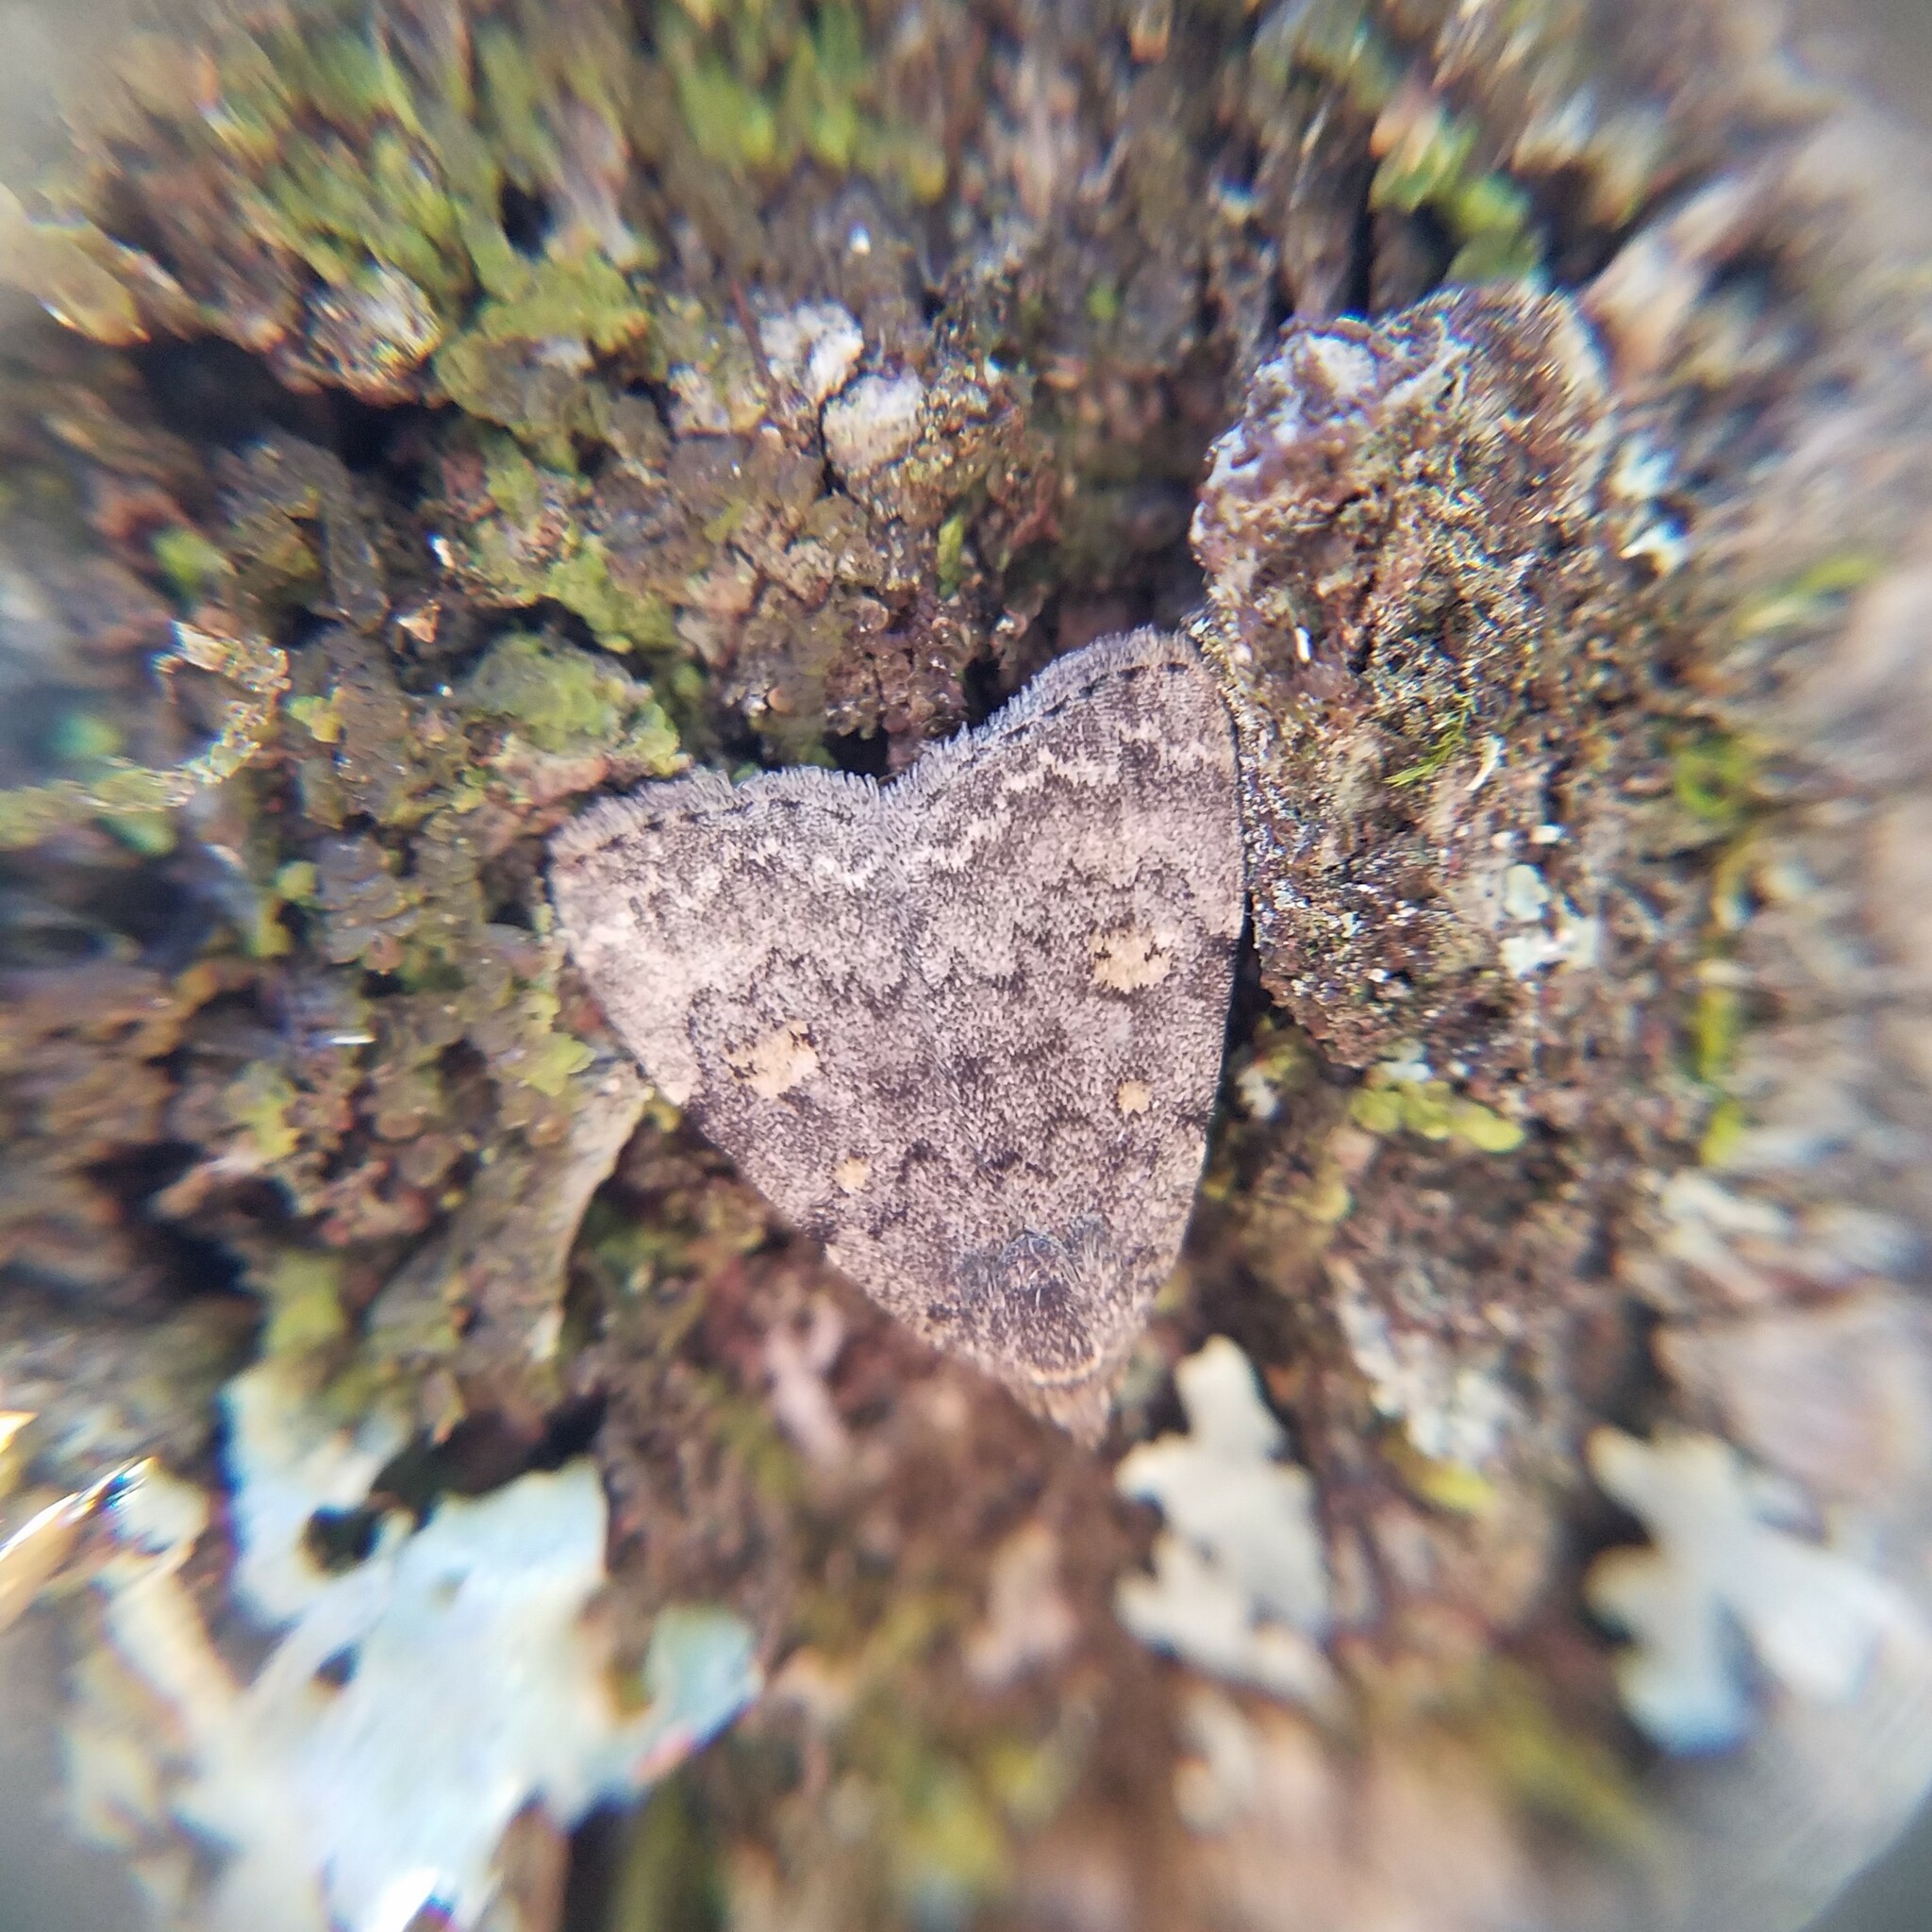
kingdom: Animalia
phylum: Arthropoda
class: Insecta
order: Lepidoptera
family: Erebidae
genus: Idia
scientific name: Idia aemula
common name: Common idia moth
